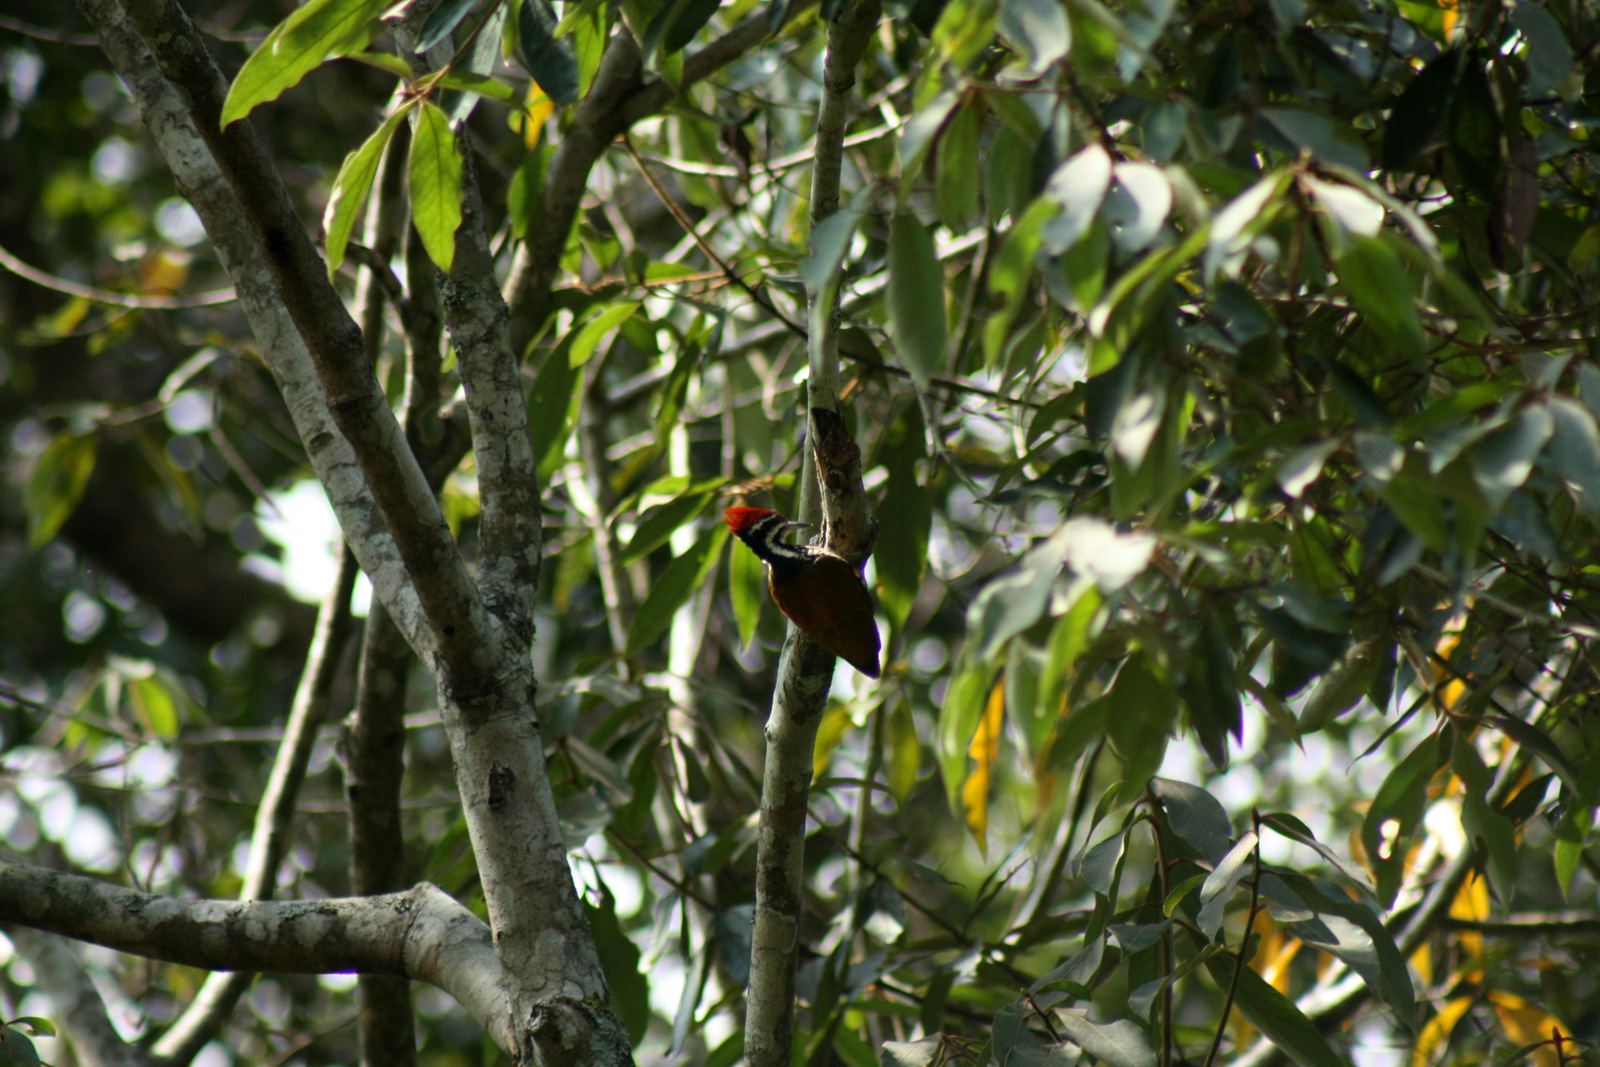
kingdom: Animalia
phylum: Chordata
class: Aves
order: Piciformes
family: Picidae
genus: Dinopium
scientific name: Dinopium benghalense
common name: Black-rumped flameback
